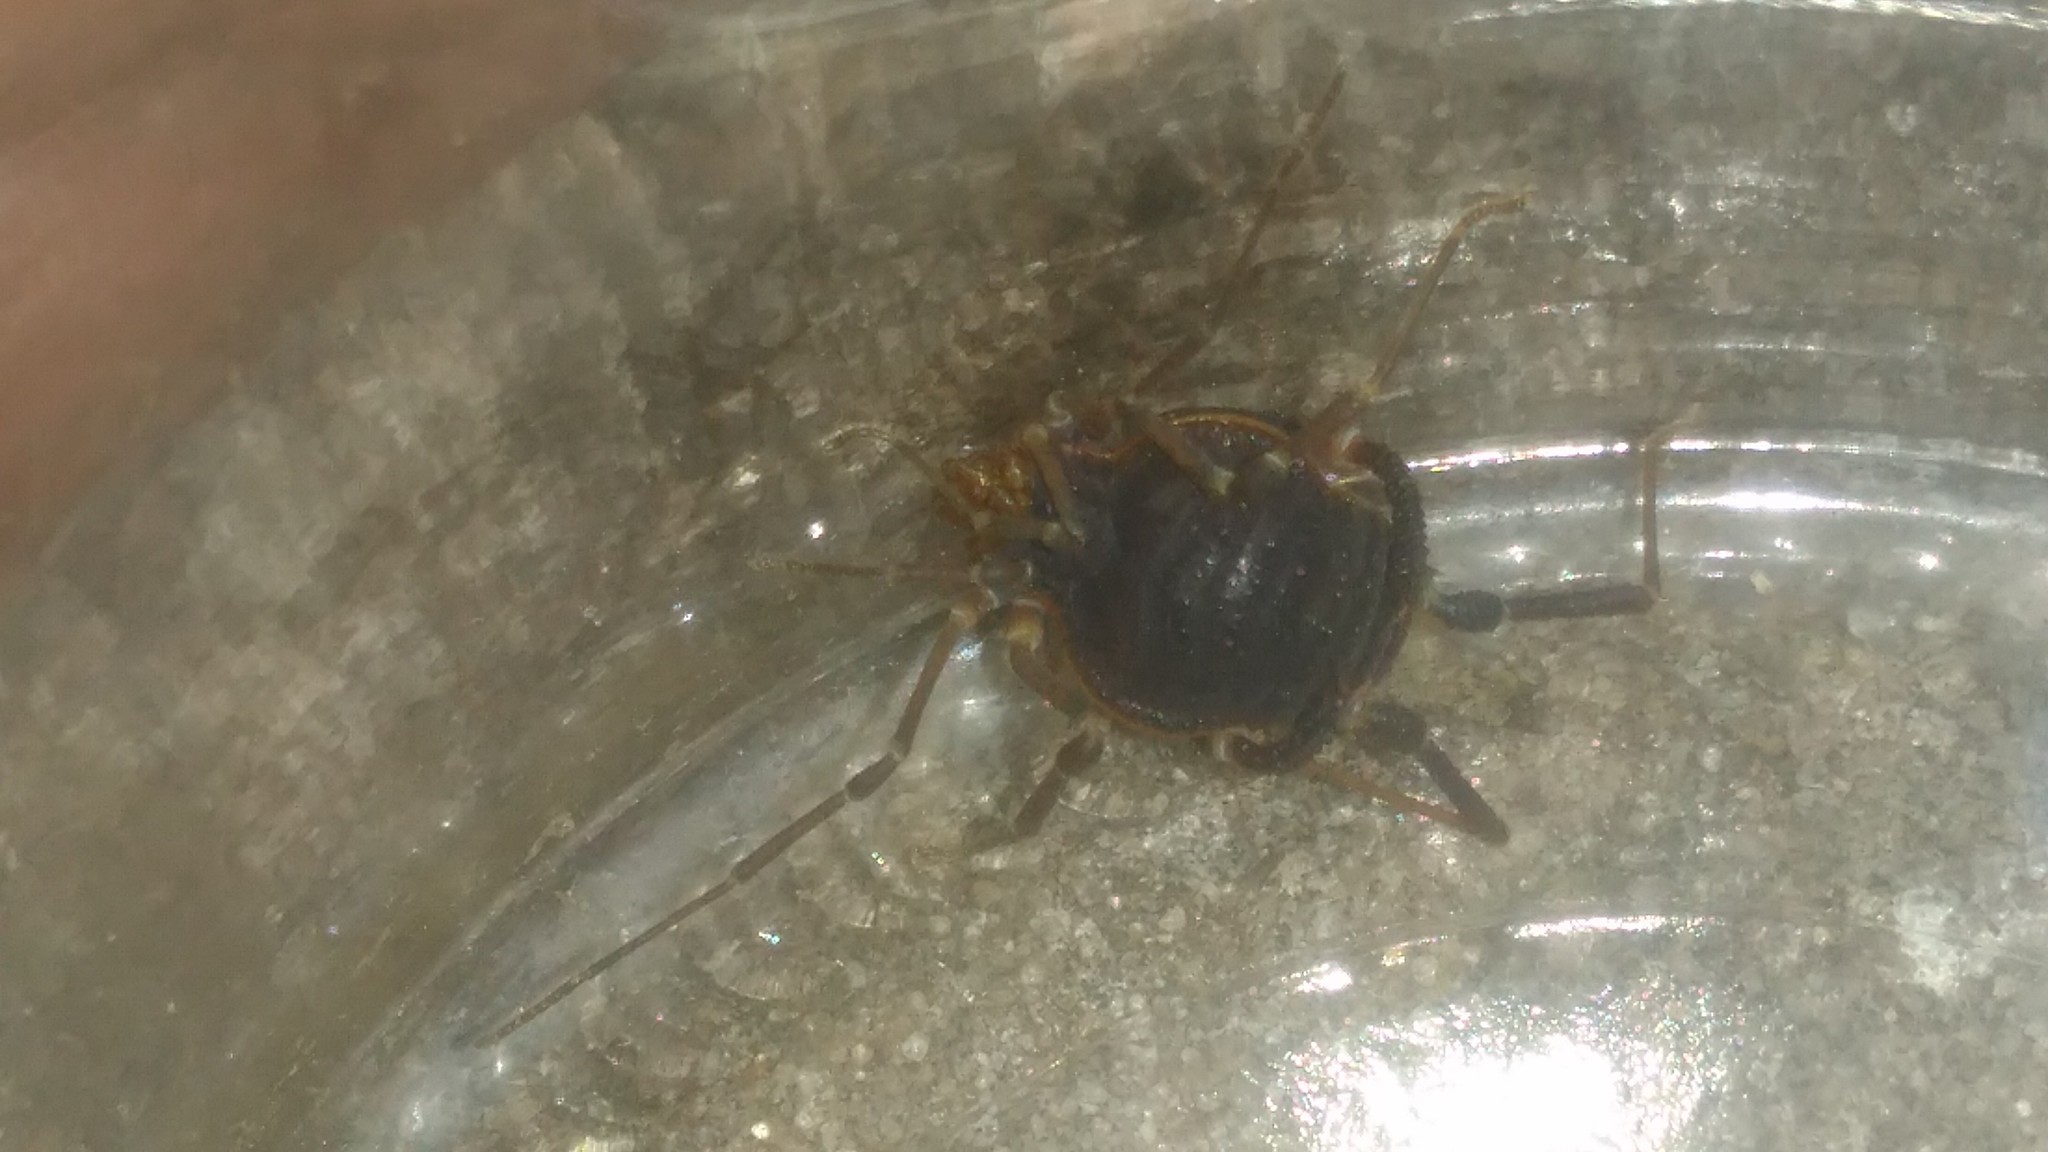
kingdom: Animalia
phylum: Arthropoda
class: Arachnida
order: Opiliones
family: Gonyleptidae
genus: Acanthopachylus
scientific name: Acanthopachylus robustus
